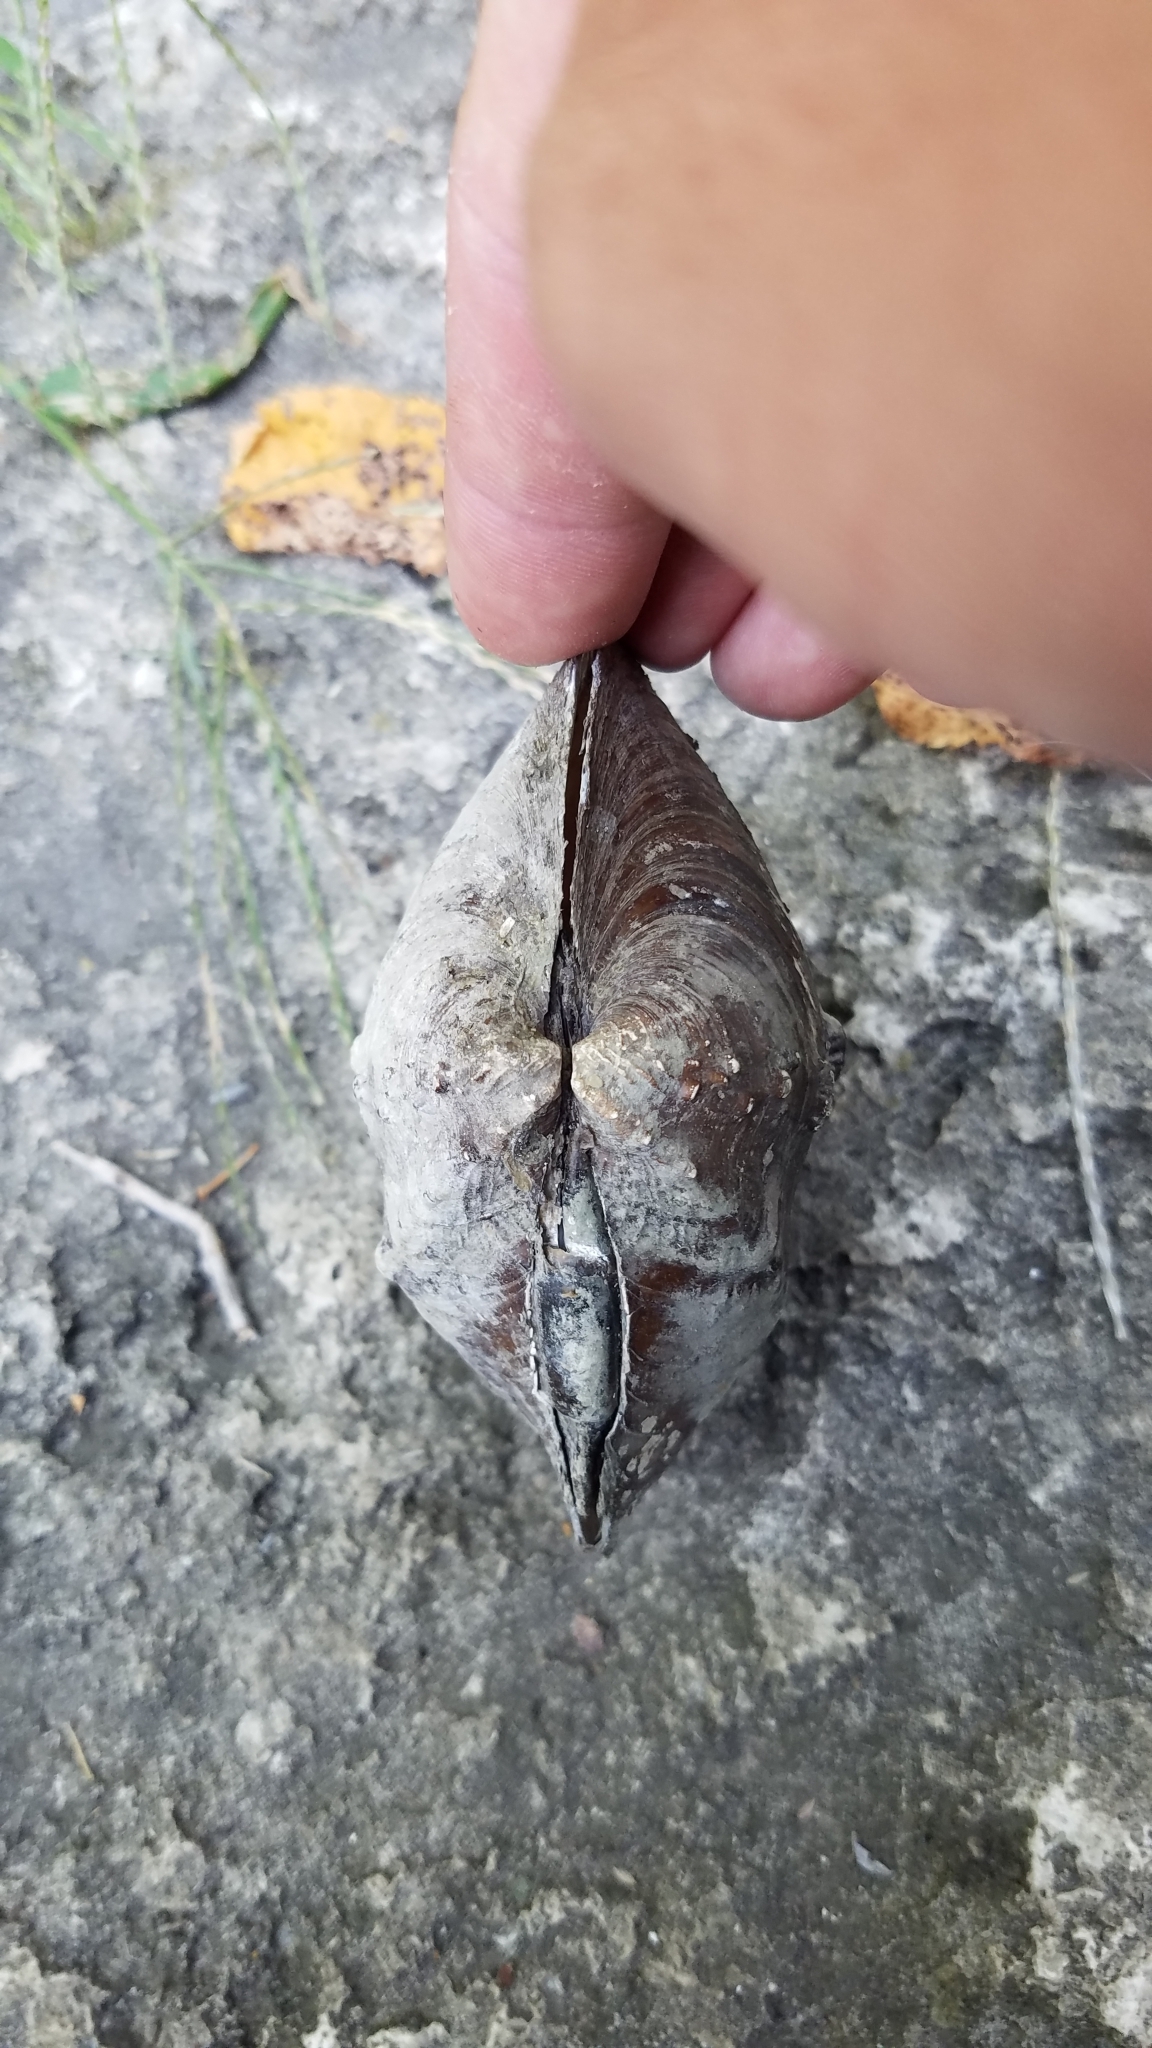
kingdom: Animalia
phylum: Mollusca
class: Bivalvia
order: Unionida
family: Unionidae
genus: Quadrula
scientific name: Quadrula quadrula
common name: Mapleleaf
